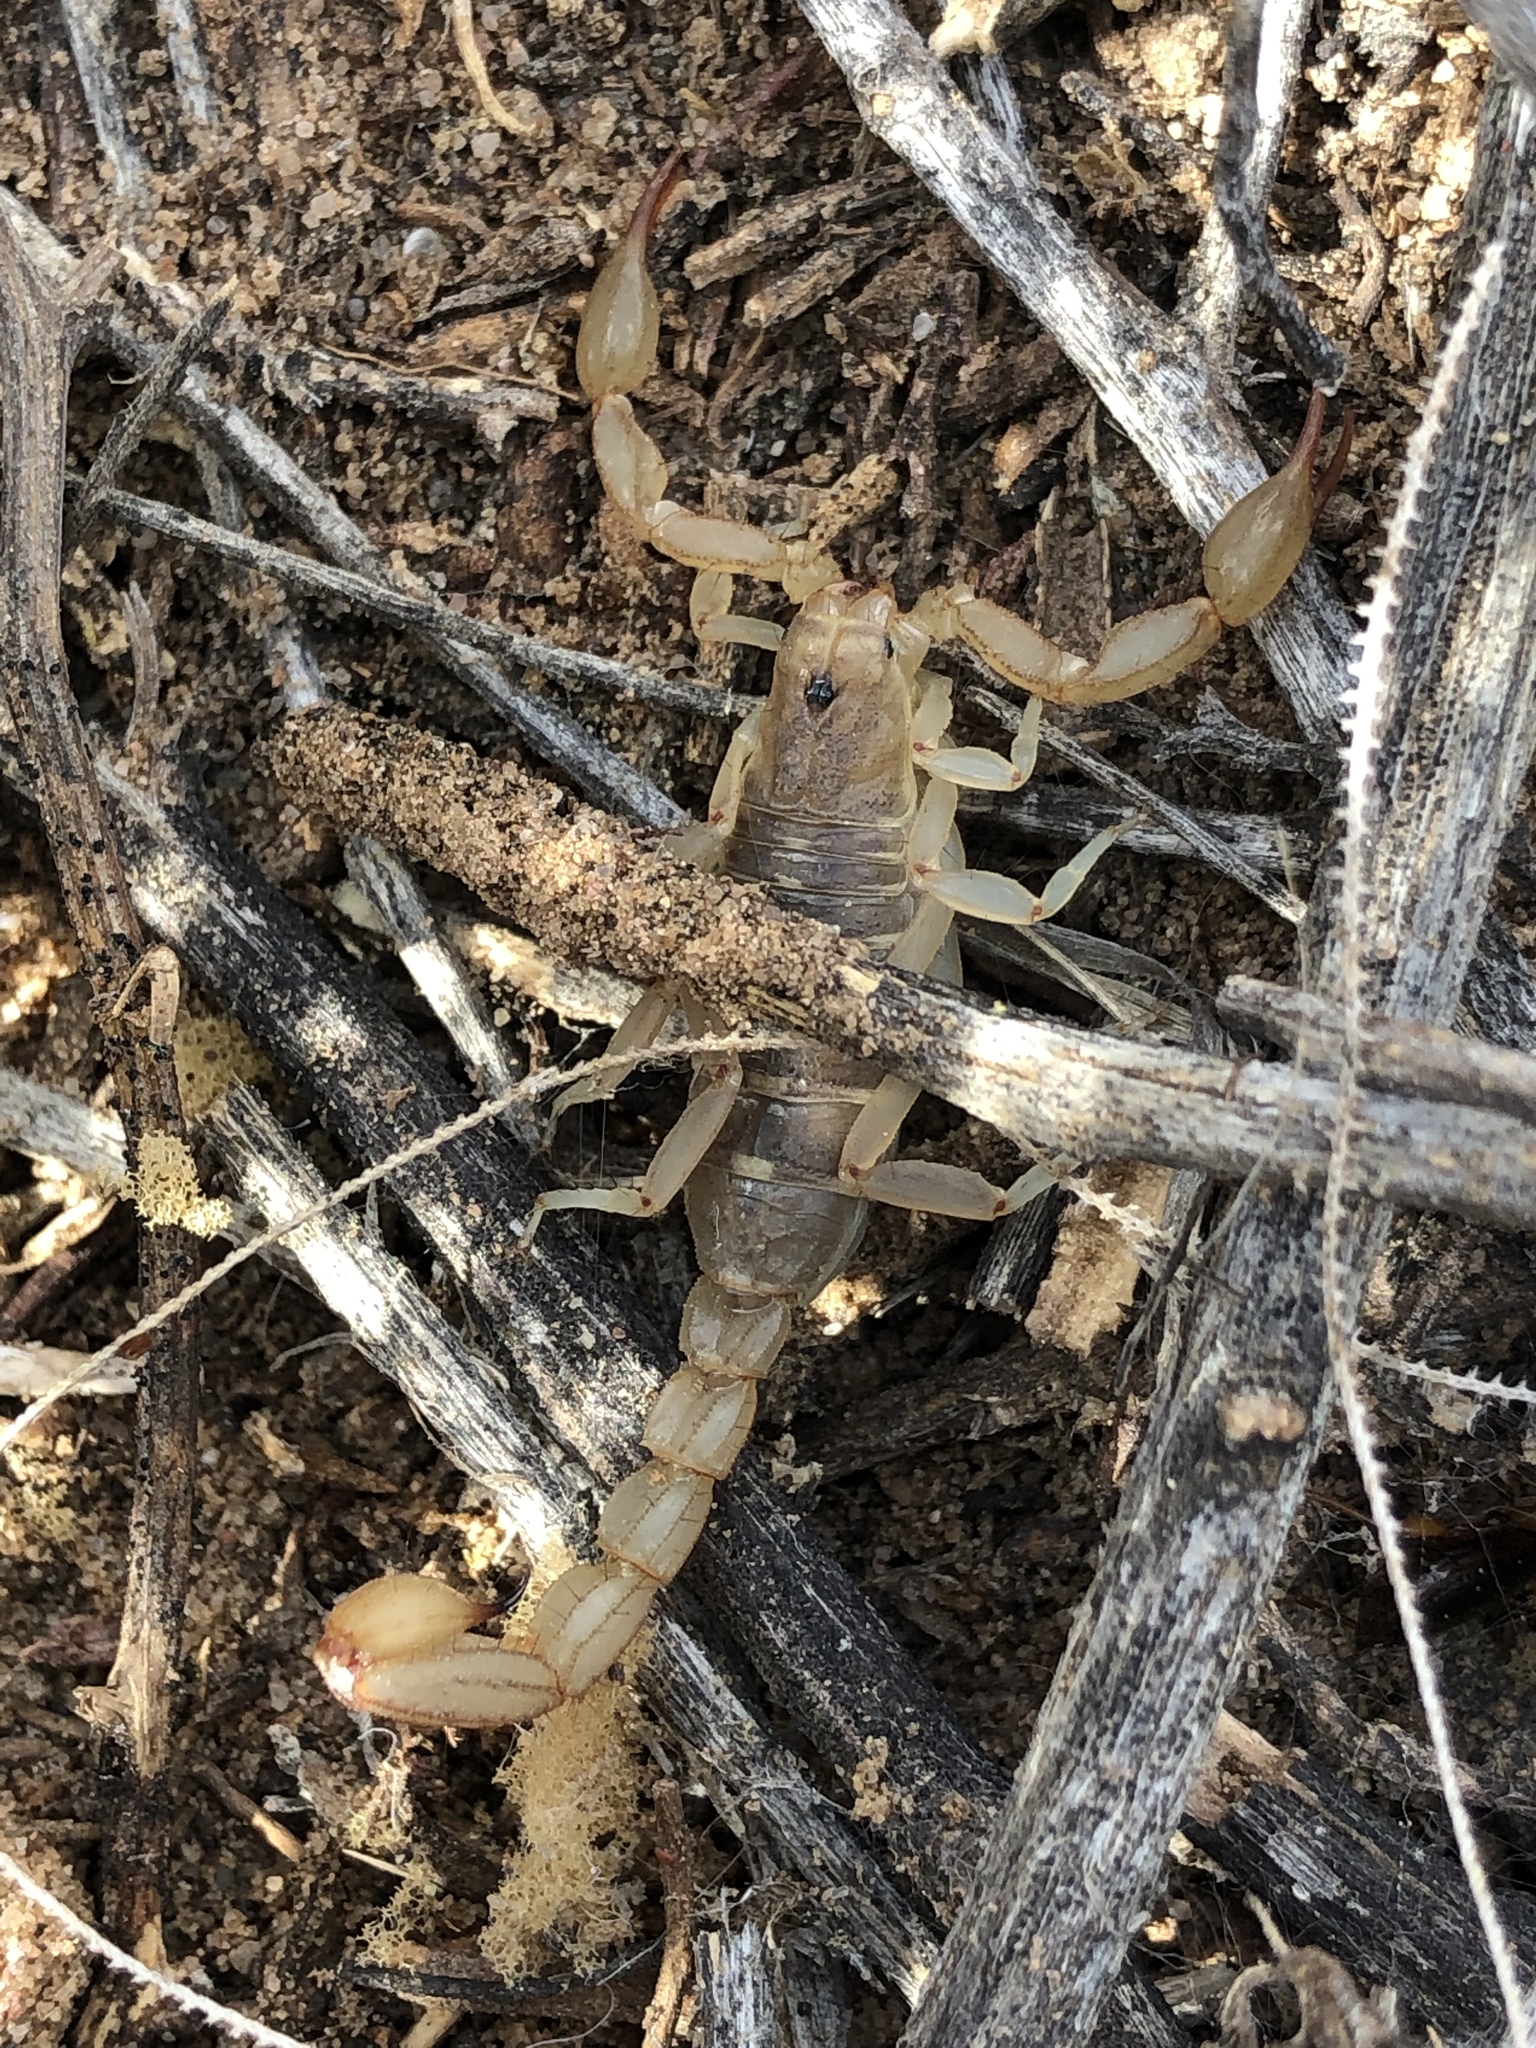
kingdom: Animalia
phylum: Arthropoda
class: Arachnida
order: Scorpiones
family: Vaejovidae
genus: Chihuahuanus
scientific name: Chihuahuanus coahuilae
